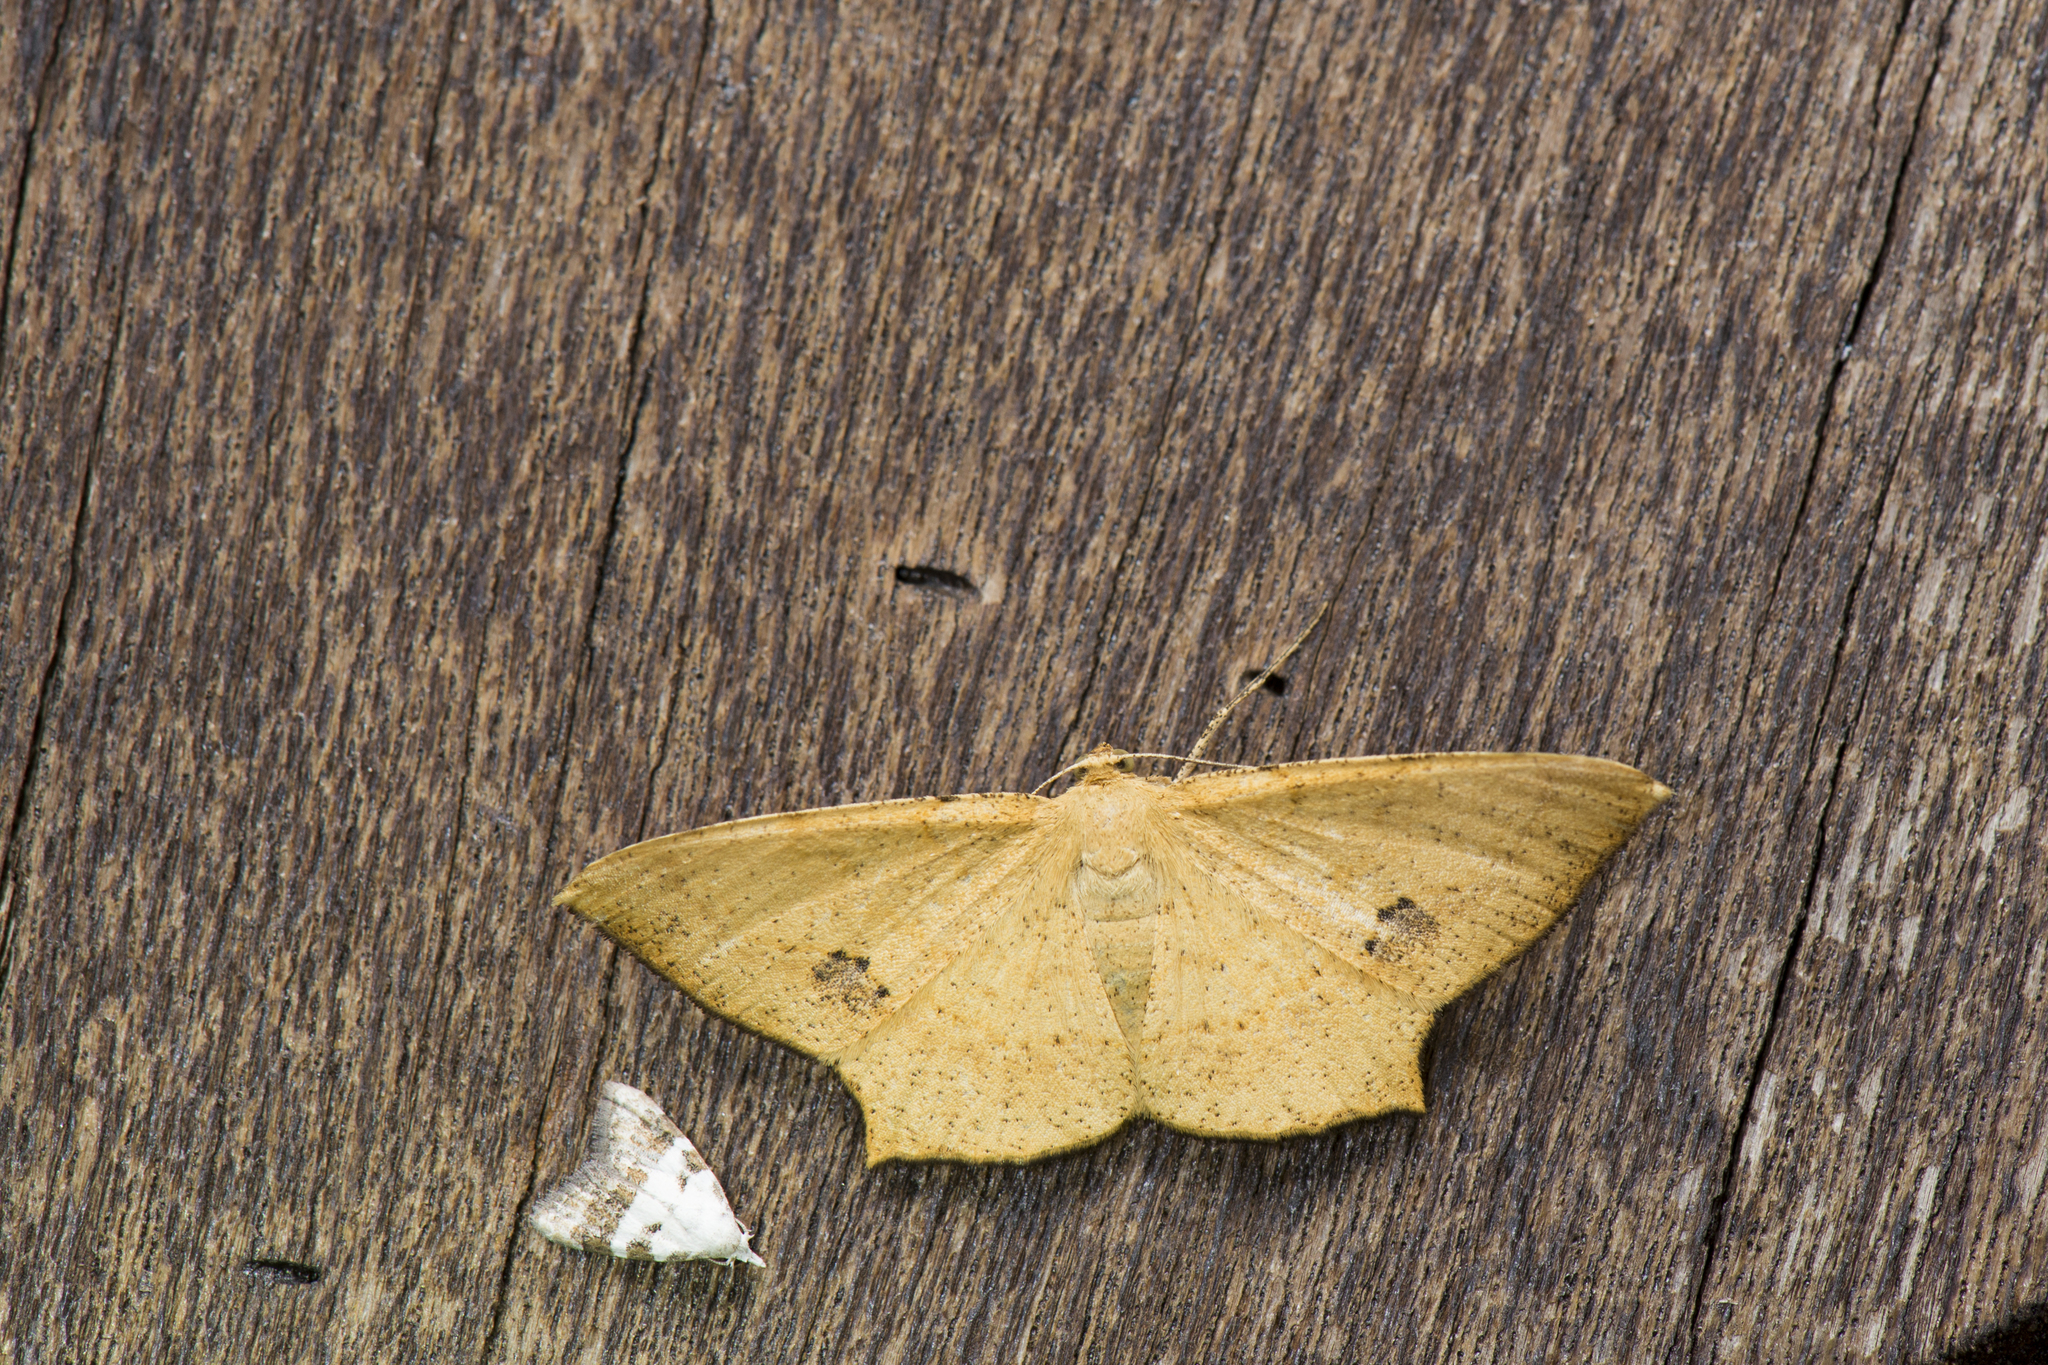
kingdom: Animalia
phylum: Arthropoda
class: Insecta
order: Lepidoptera
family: Geometridae
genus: Krananda
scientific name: Krananda falcata
